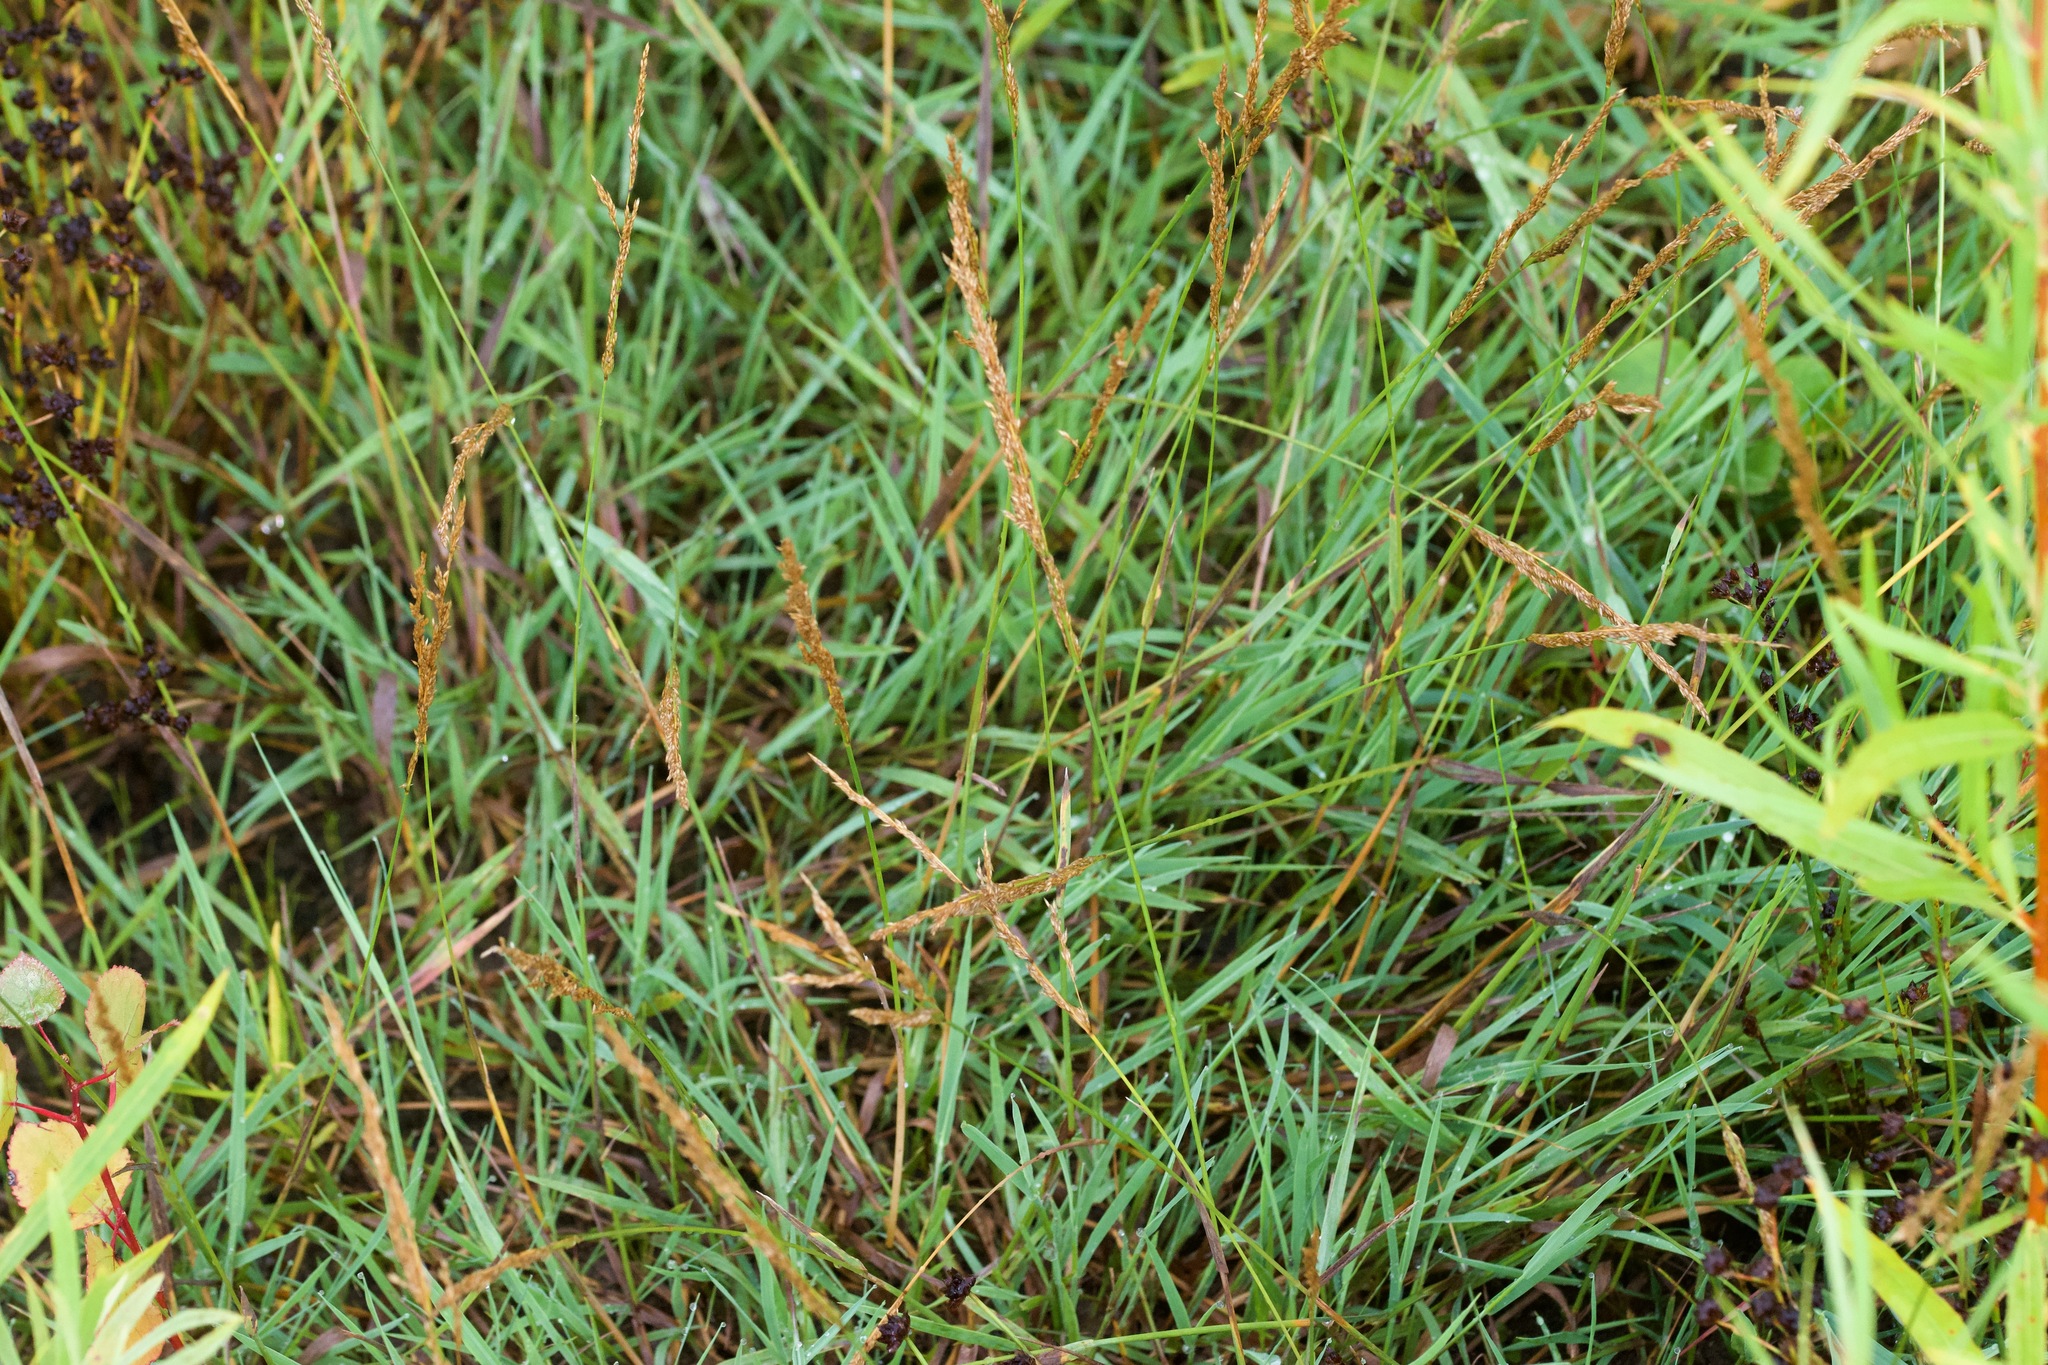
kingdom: Plantae
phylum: Tracheophyta
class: Liliopsida
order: Poales
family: Poaceae
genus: Agrostis
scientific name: Agrostis stolonifera
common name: Creeping bentgrass
